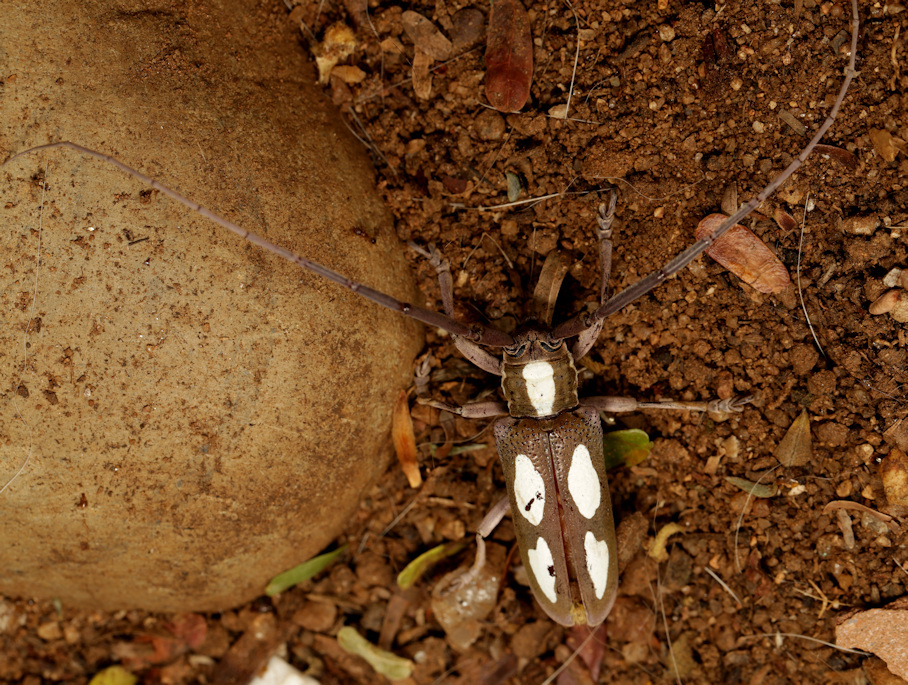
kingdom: Animalia
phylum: Arthropoda
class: Insecta
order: Coleoptera
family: Cerambycidae
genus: Prosopocera
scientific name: Prosopocera paykullii
